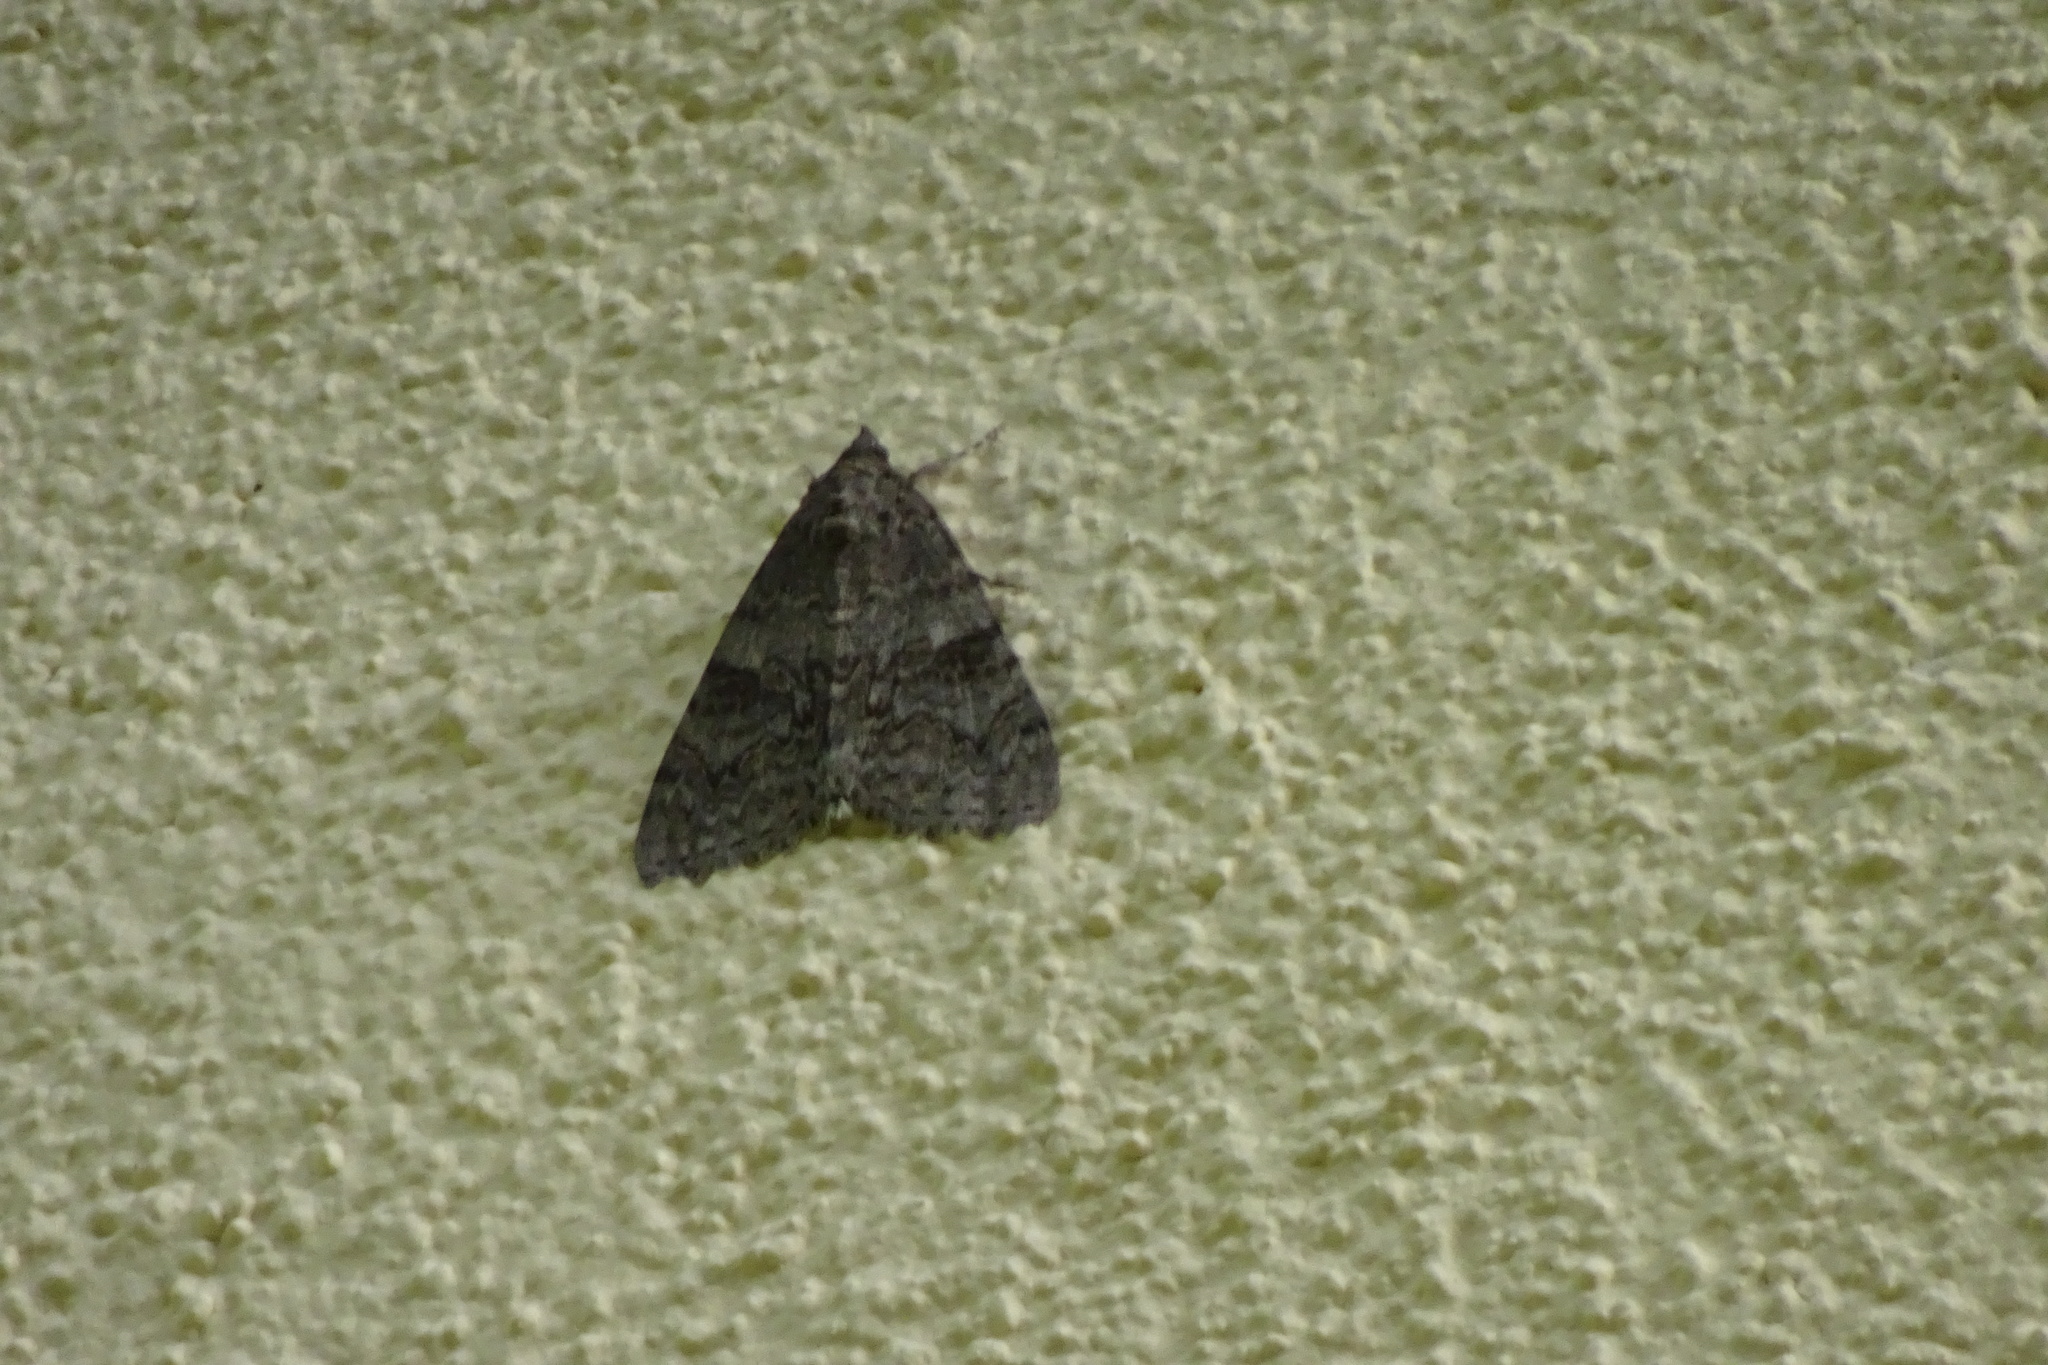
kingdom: Animalia
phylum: Arthropoda
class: Insecta
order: Lepidoptera
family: Erebidae
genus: Catocala
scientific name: Catocala nupta
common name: Red underwing
